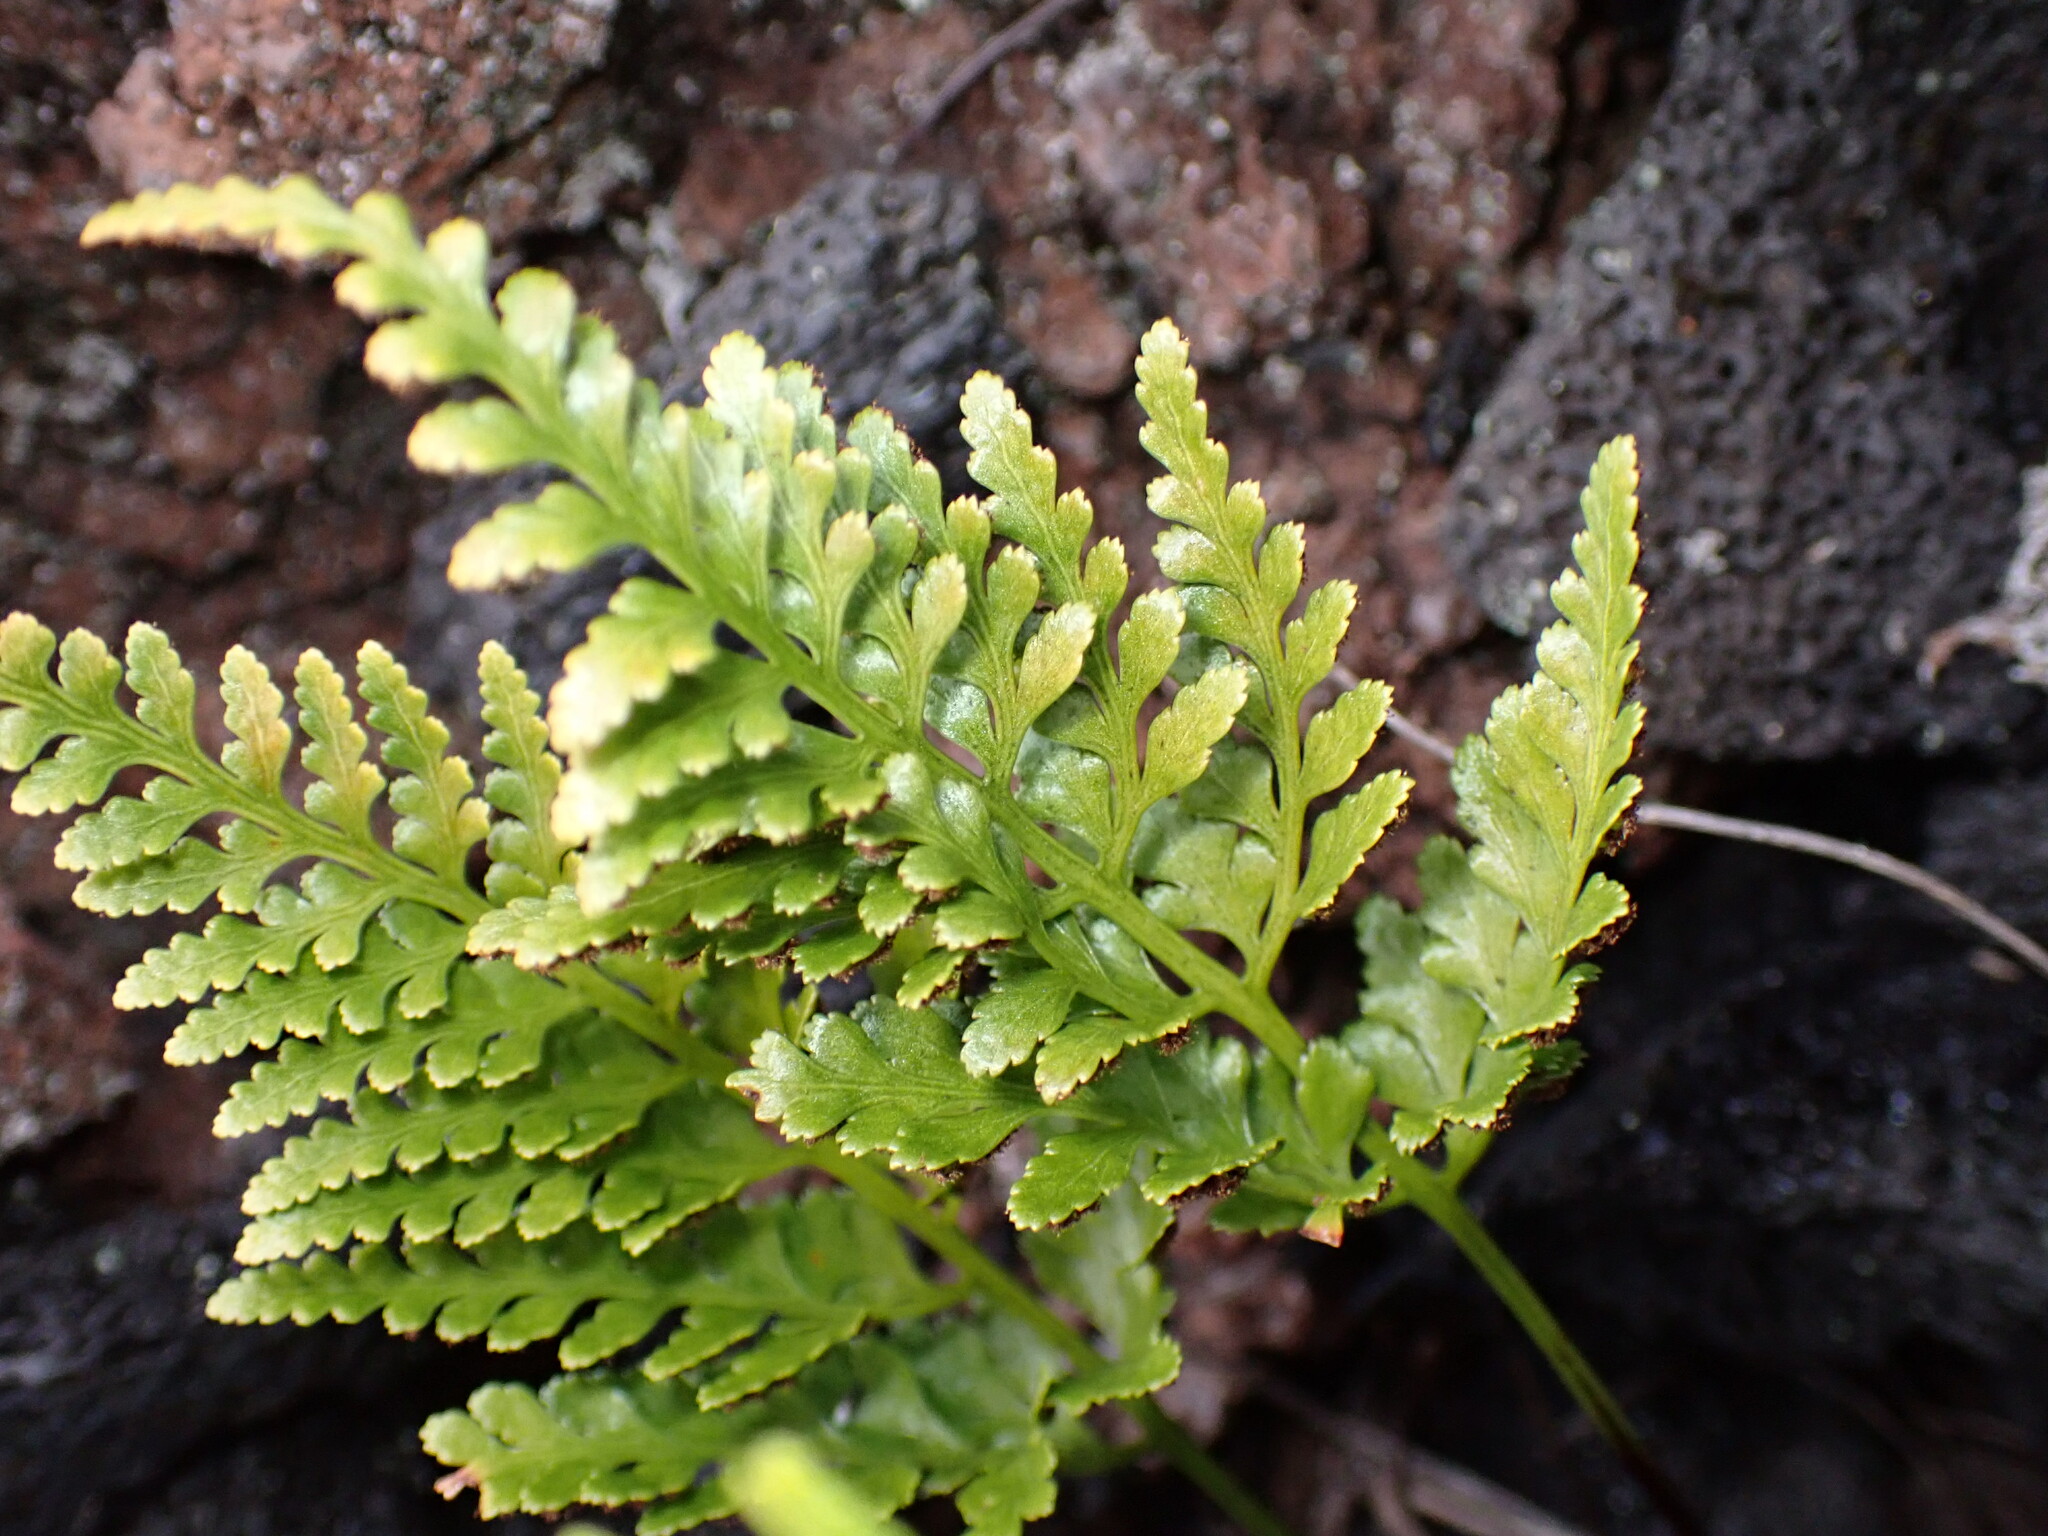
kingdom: Plantae
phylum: Tracheophyta
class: Polypodiopsida
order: Polypodiales
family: Aspleniaceae
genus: Asplenium
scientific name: Asplenium adiantum-nigrum
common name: Black spleenwort
